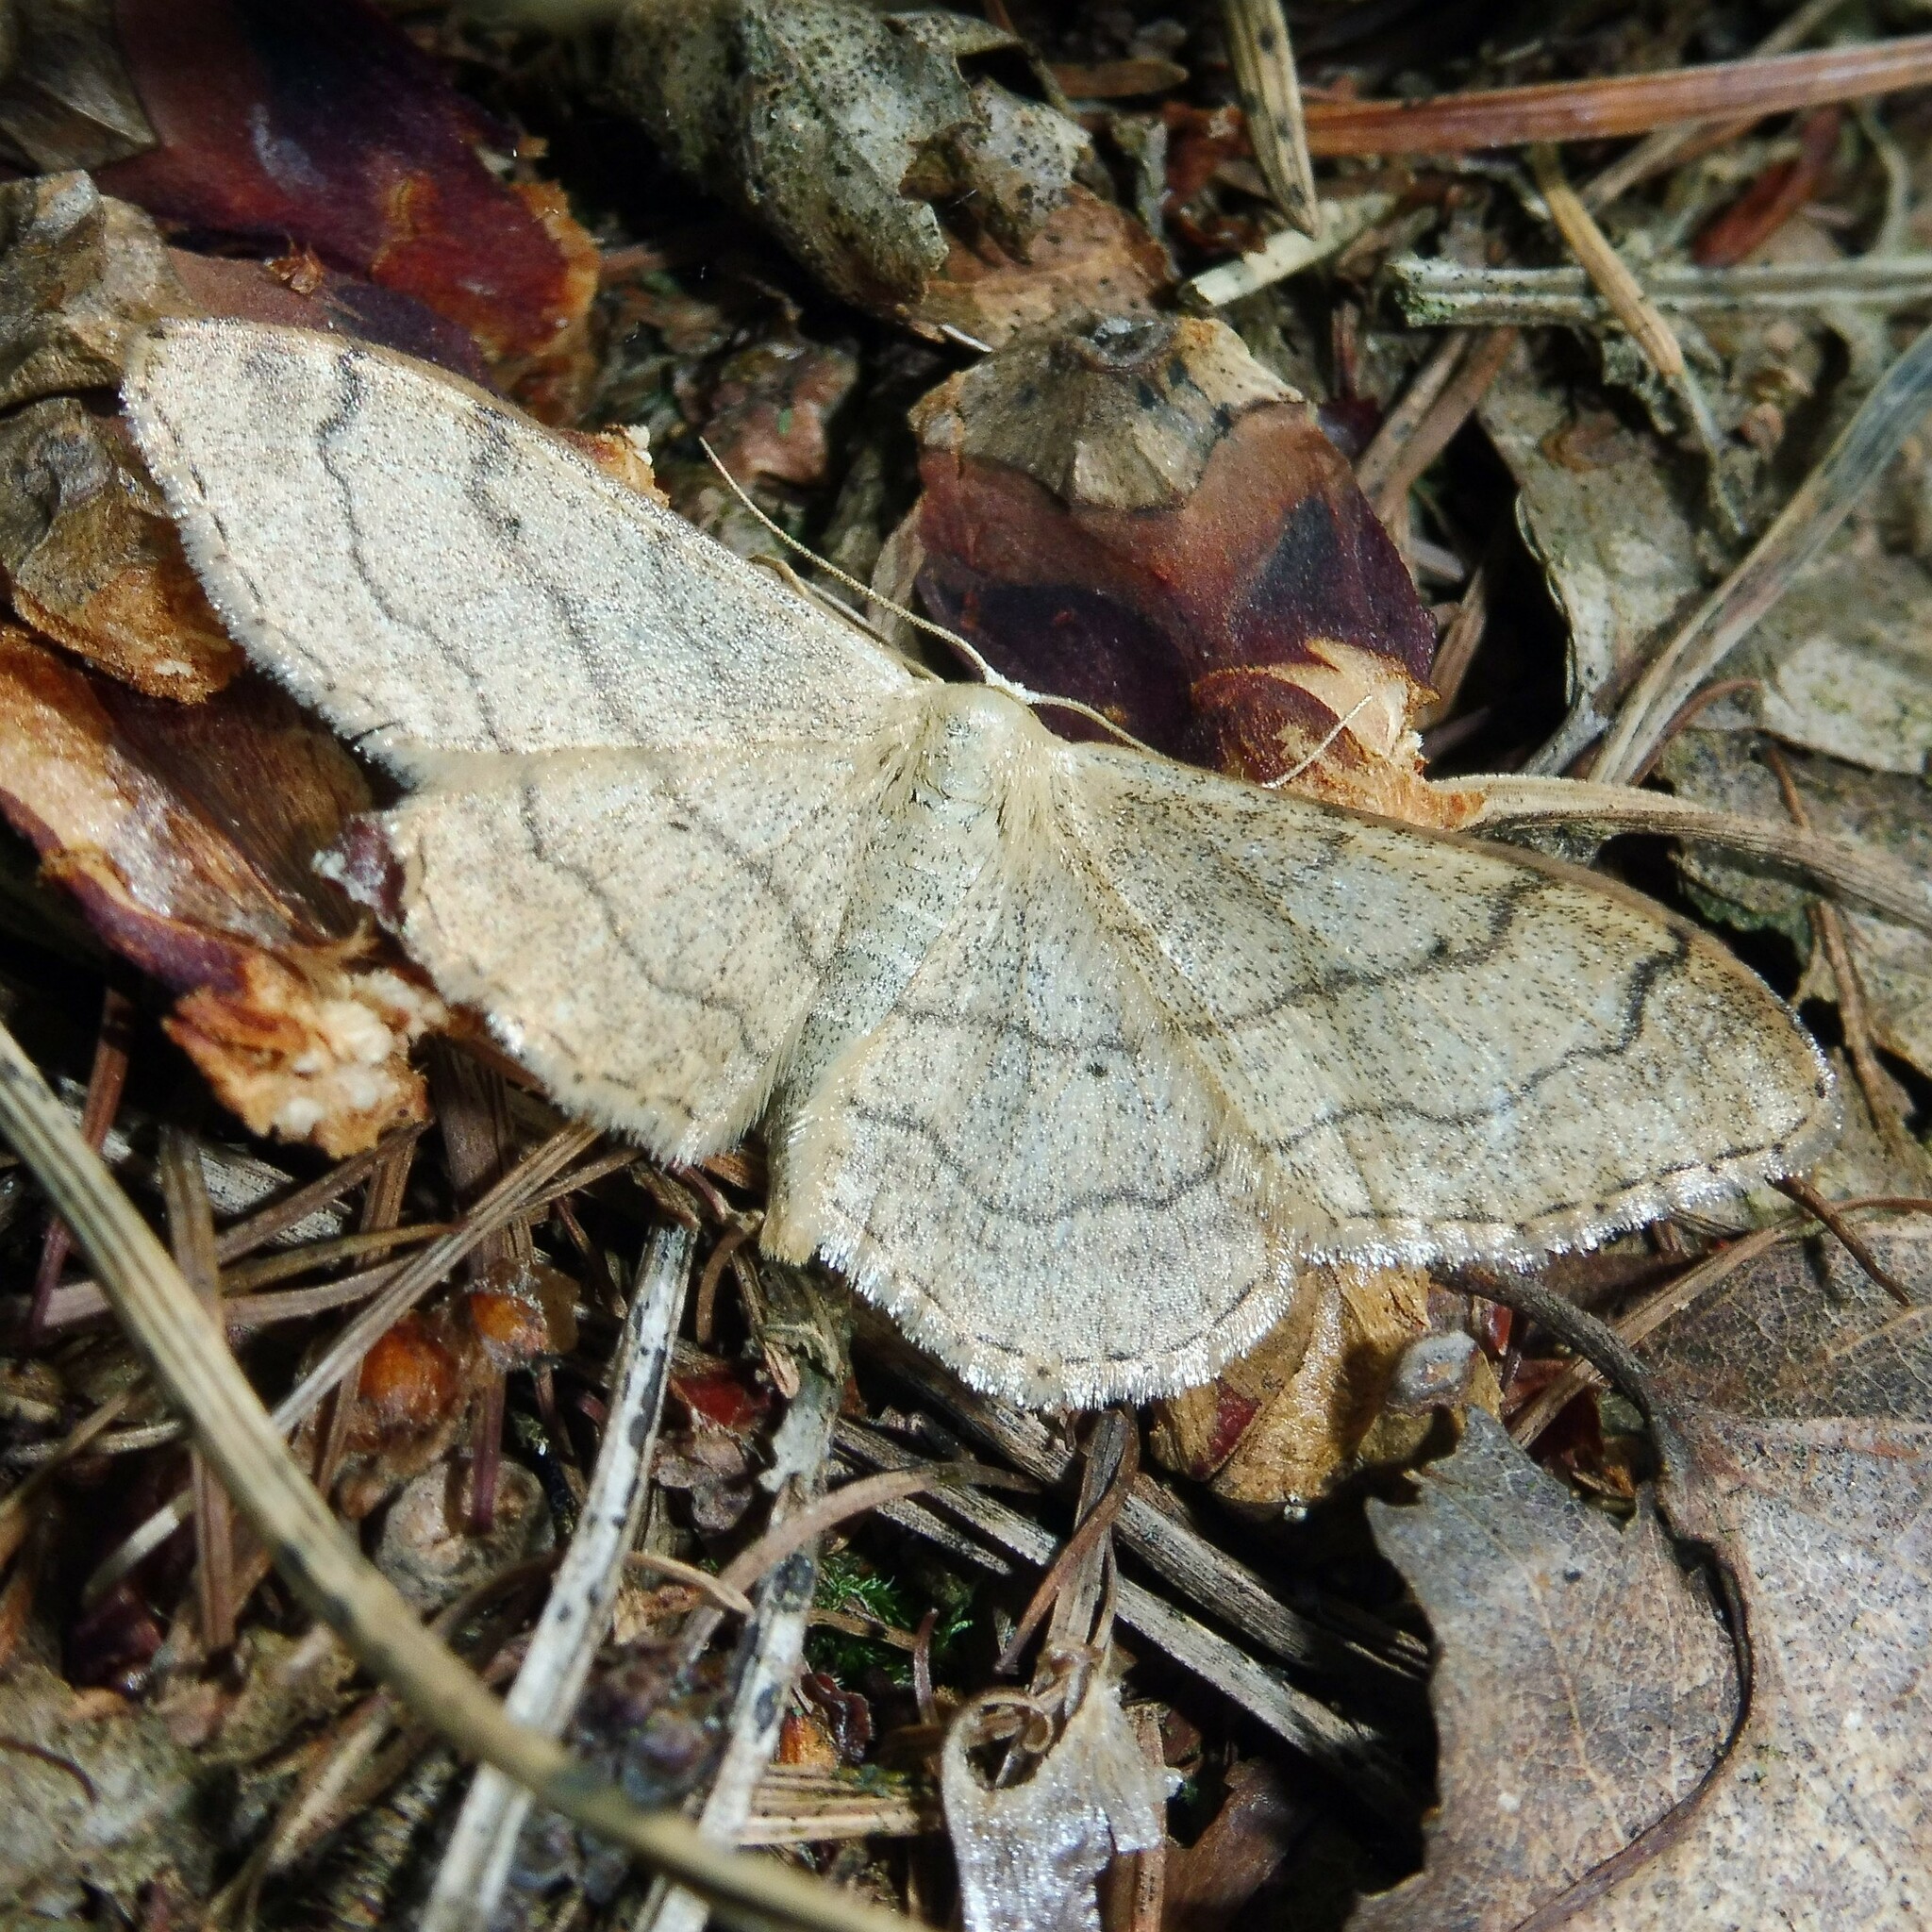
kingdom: Animalia
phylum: Arthropoda
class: Insecta
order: Lepidoptera
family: Geometridae
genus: Idaea
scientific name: Idaea aversata
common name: Riband wave
